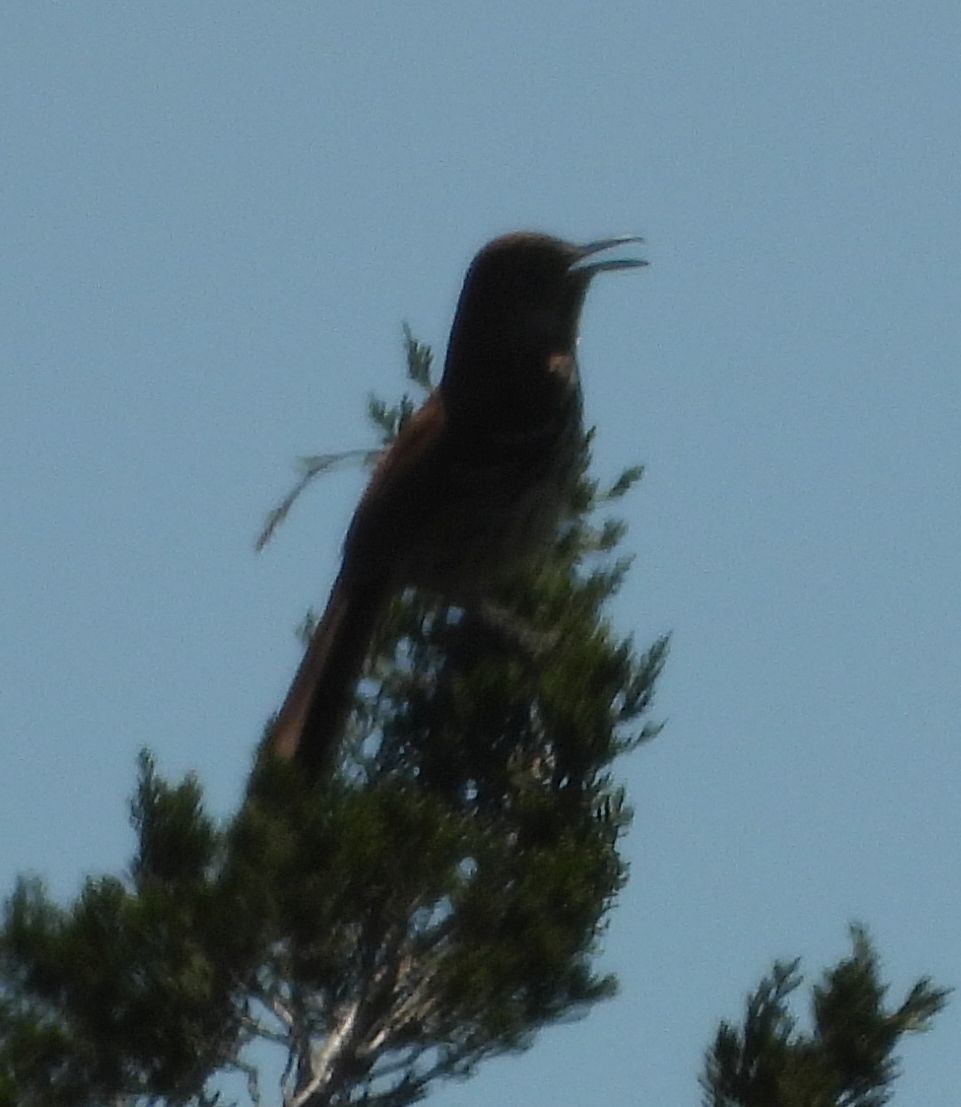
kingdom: Animalia
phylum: Chordata
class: Aves
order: Passeriformes
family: Mimidae
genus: Toxostoma
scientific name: Toxostoma rufum
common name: Brown thrasher
